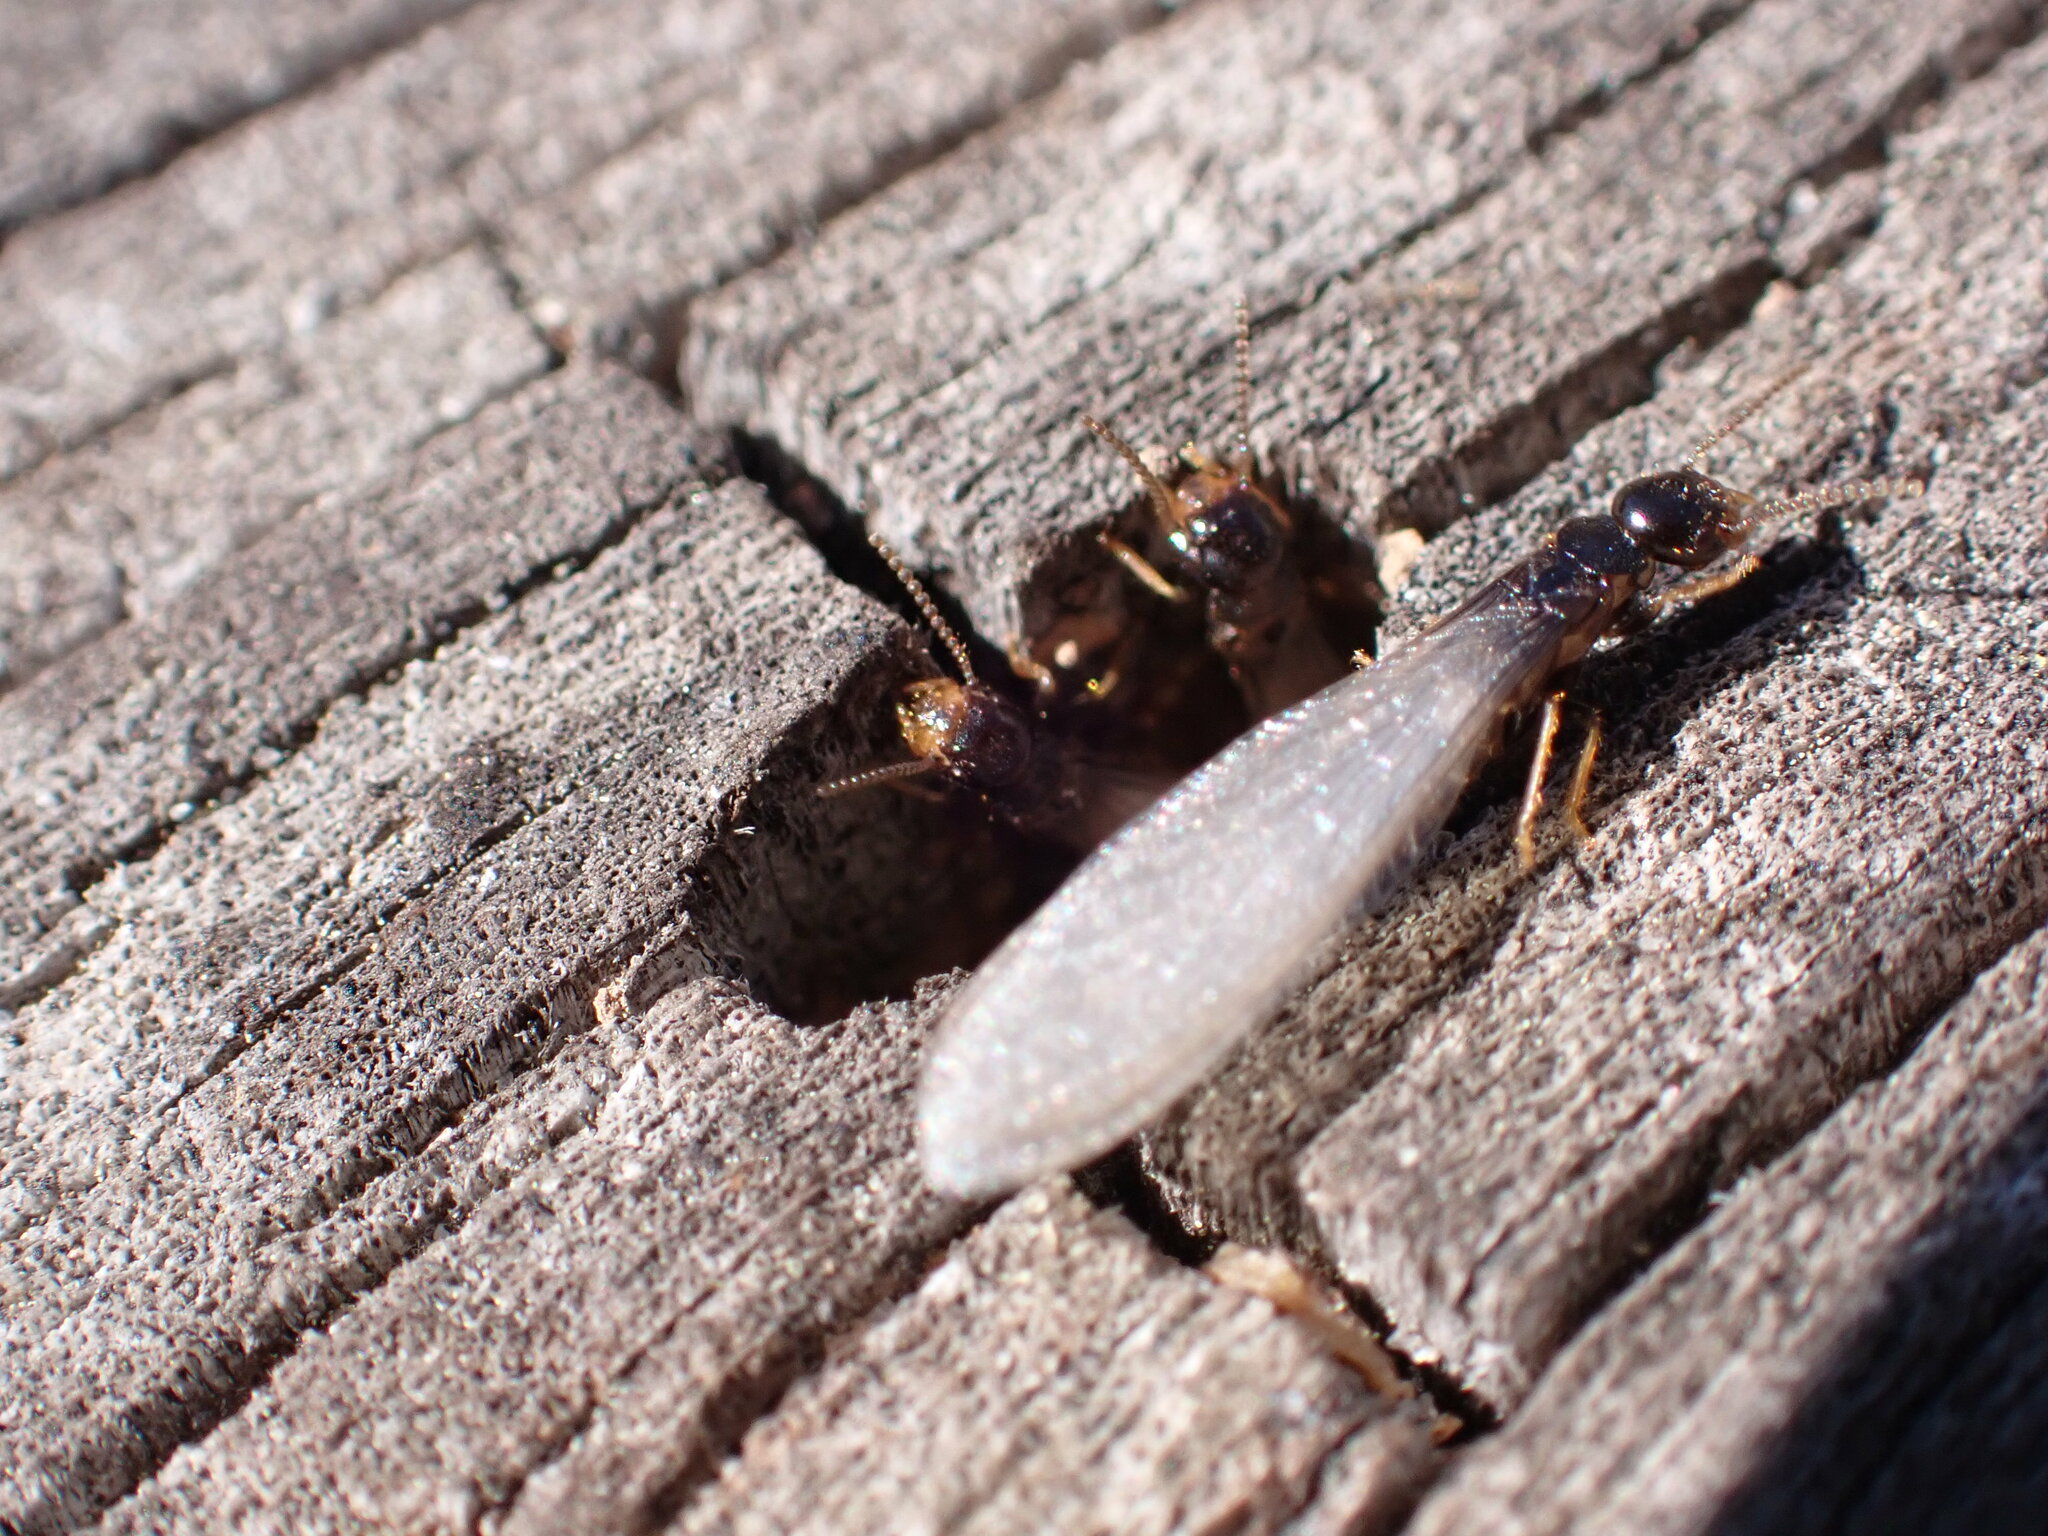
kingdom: Animalia
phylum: Arthropoda
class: Insecta
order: Blattodea
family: Rhinotermitidae
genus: Reticulitermes
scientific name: Reticulitermes flavipes
